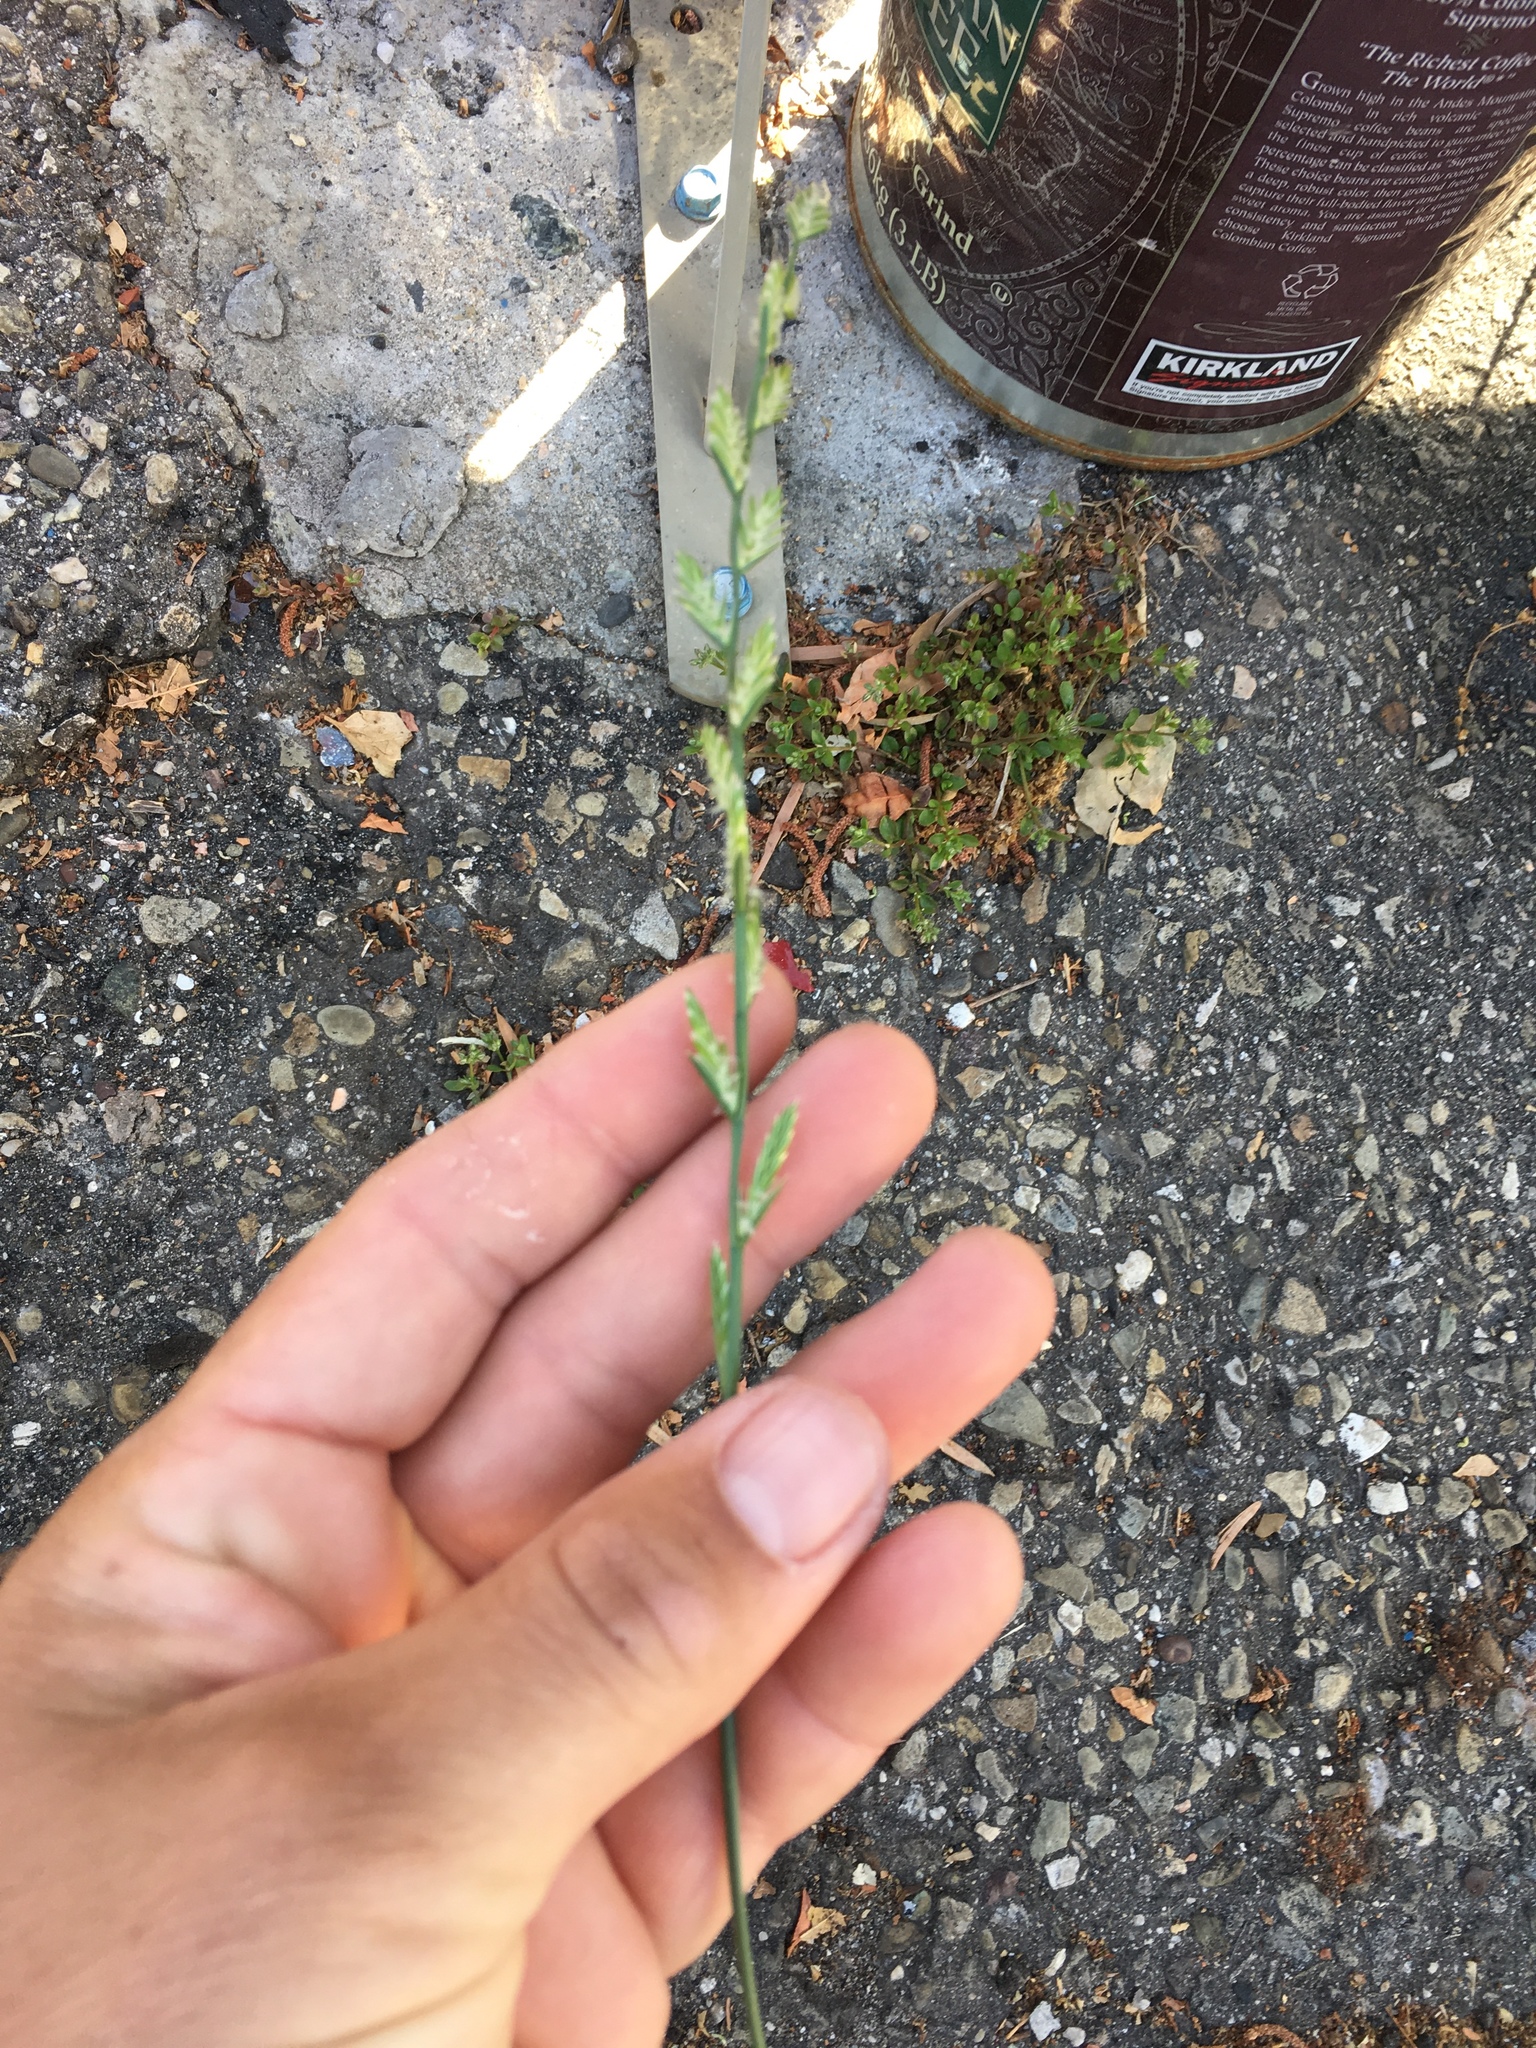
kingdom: Plantae
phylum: Tracheophyta
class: Liliopsida
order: Poales
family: Poaceae
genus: Lolium
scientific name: Lolium perenne
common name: Perennial ryegrass
